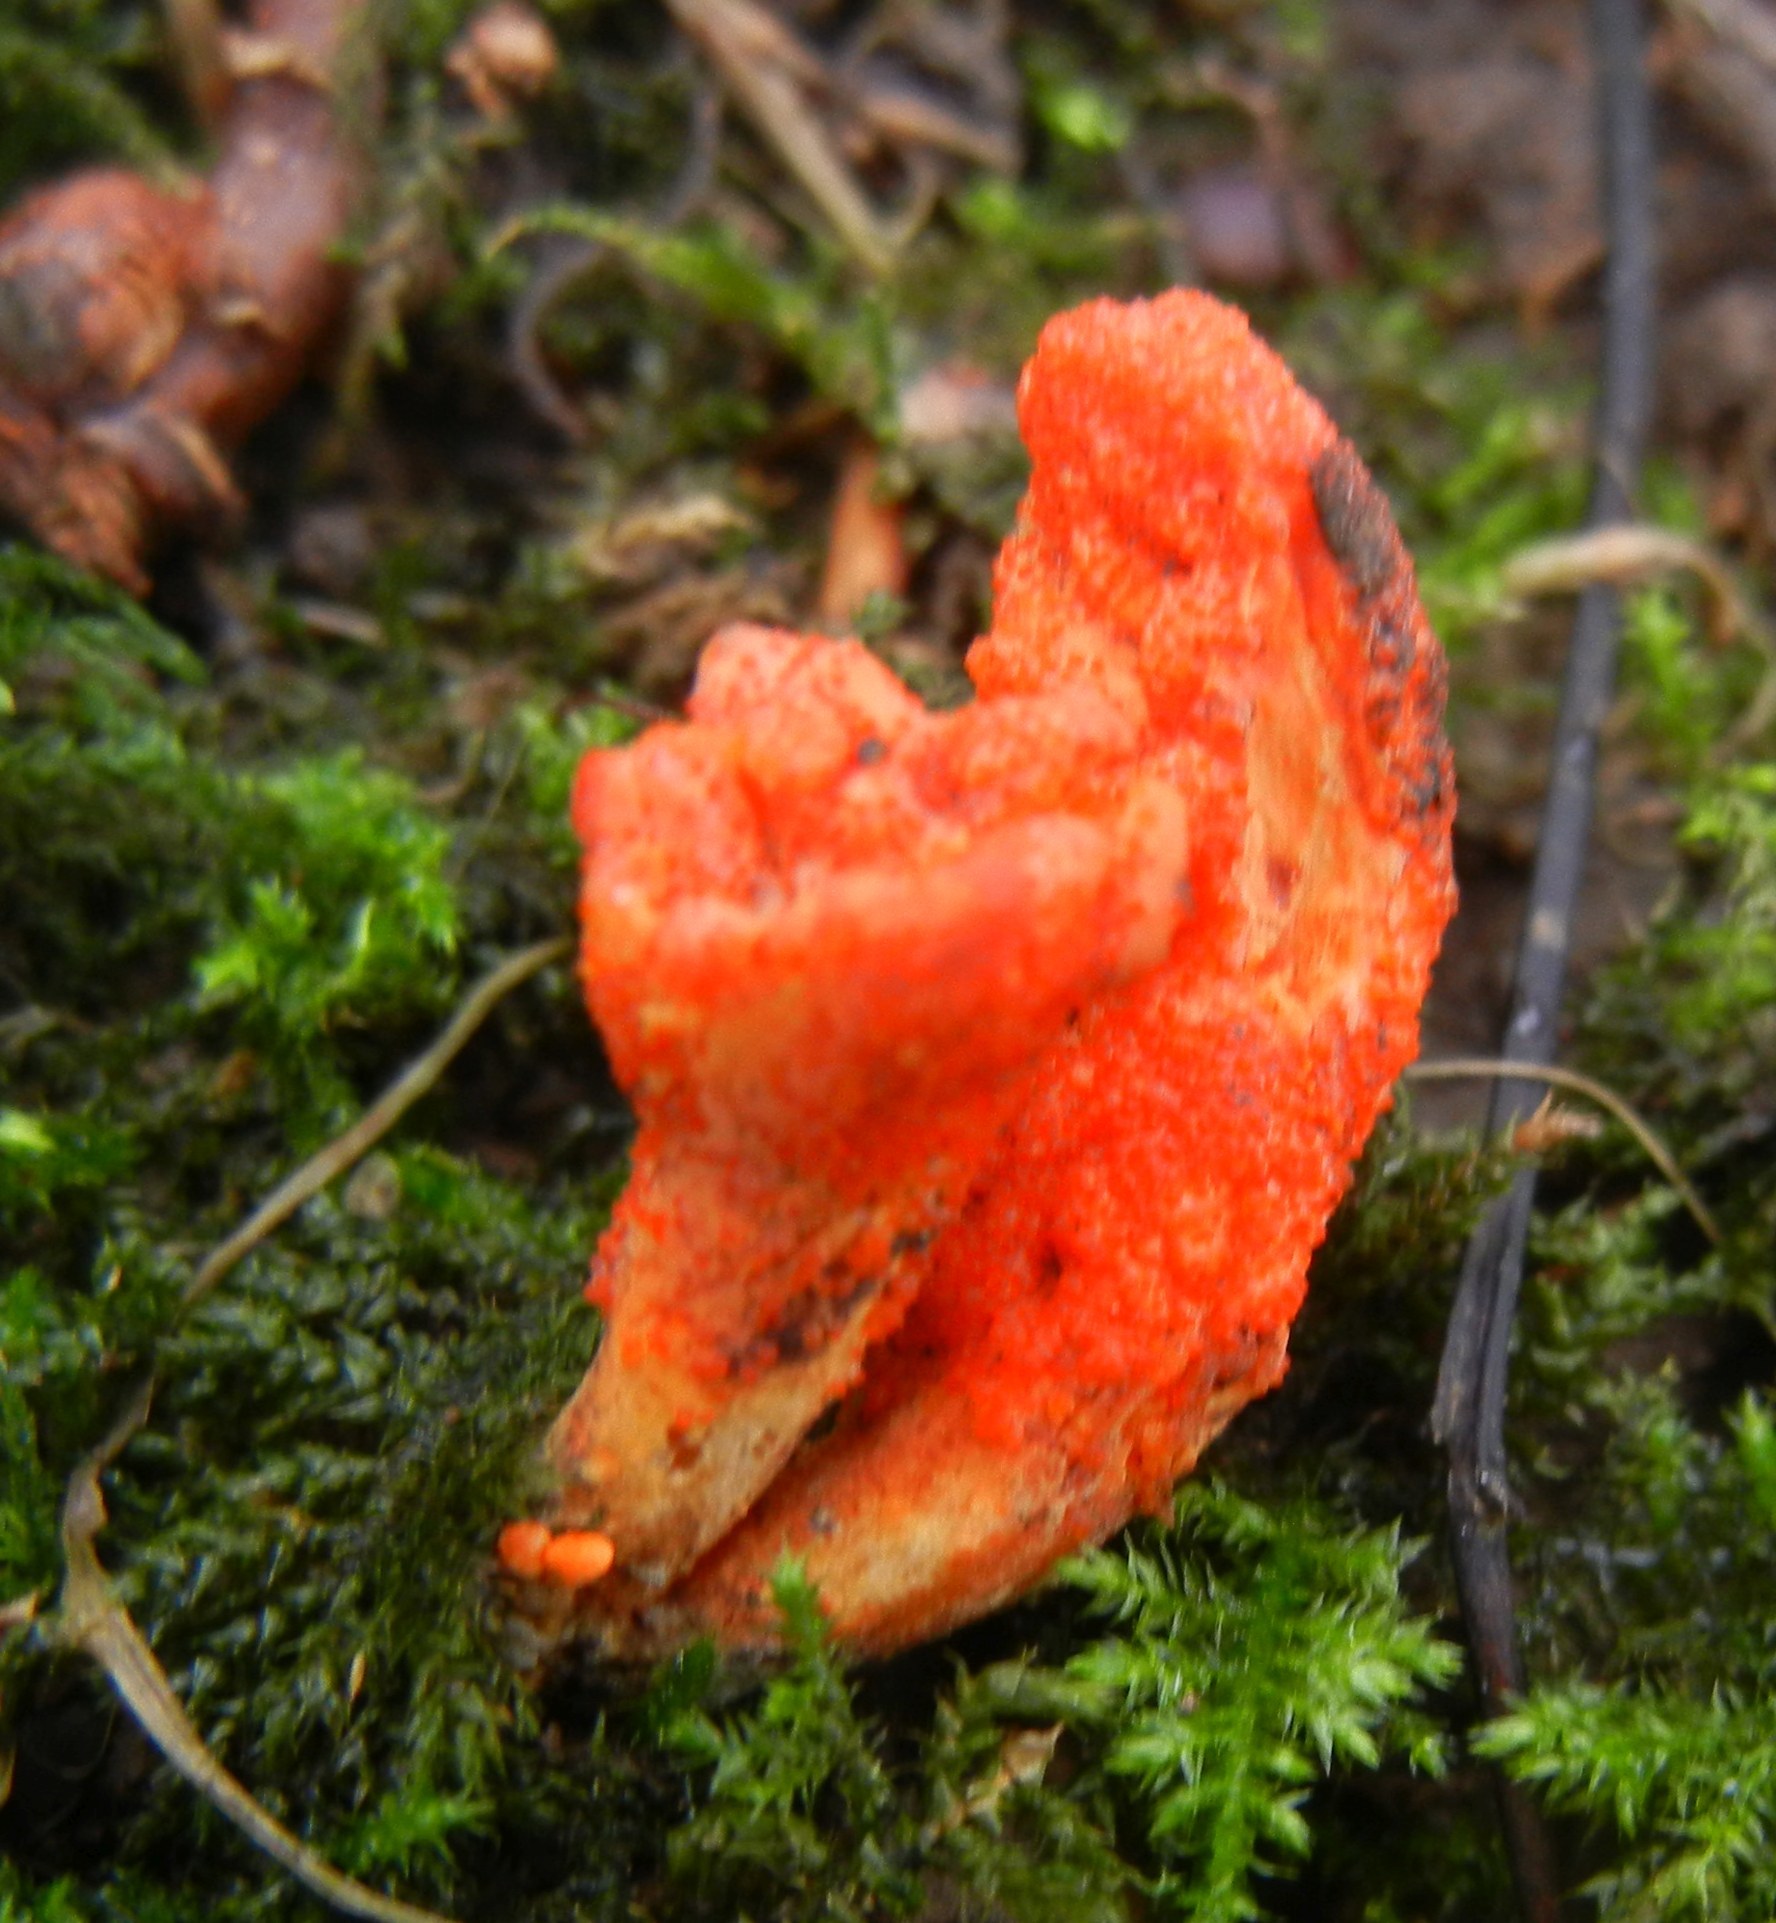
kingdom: Fungi
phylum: Ascomycota
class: Sordariomycetes
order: Hypocreales
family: Cordycipitaceae
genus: Cordyceps
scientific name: Cordyceps militaris
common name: Scarlet caterpillar fungus
